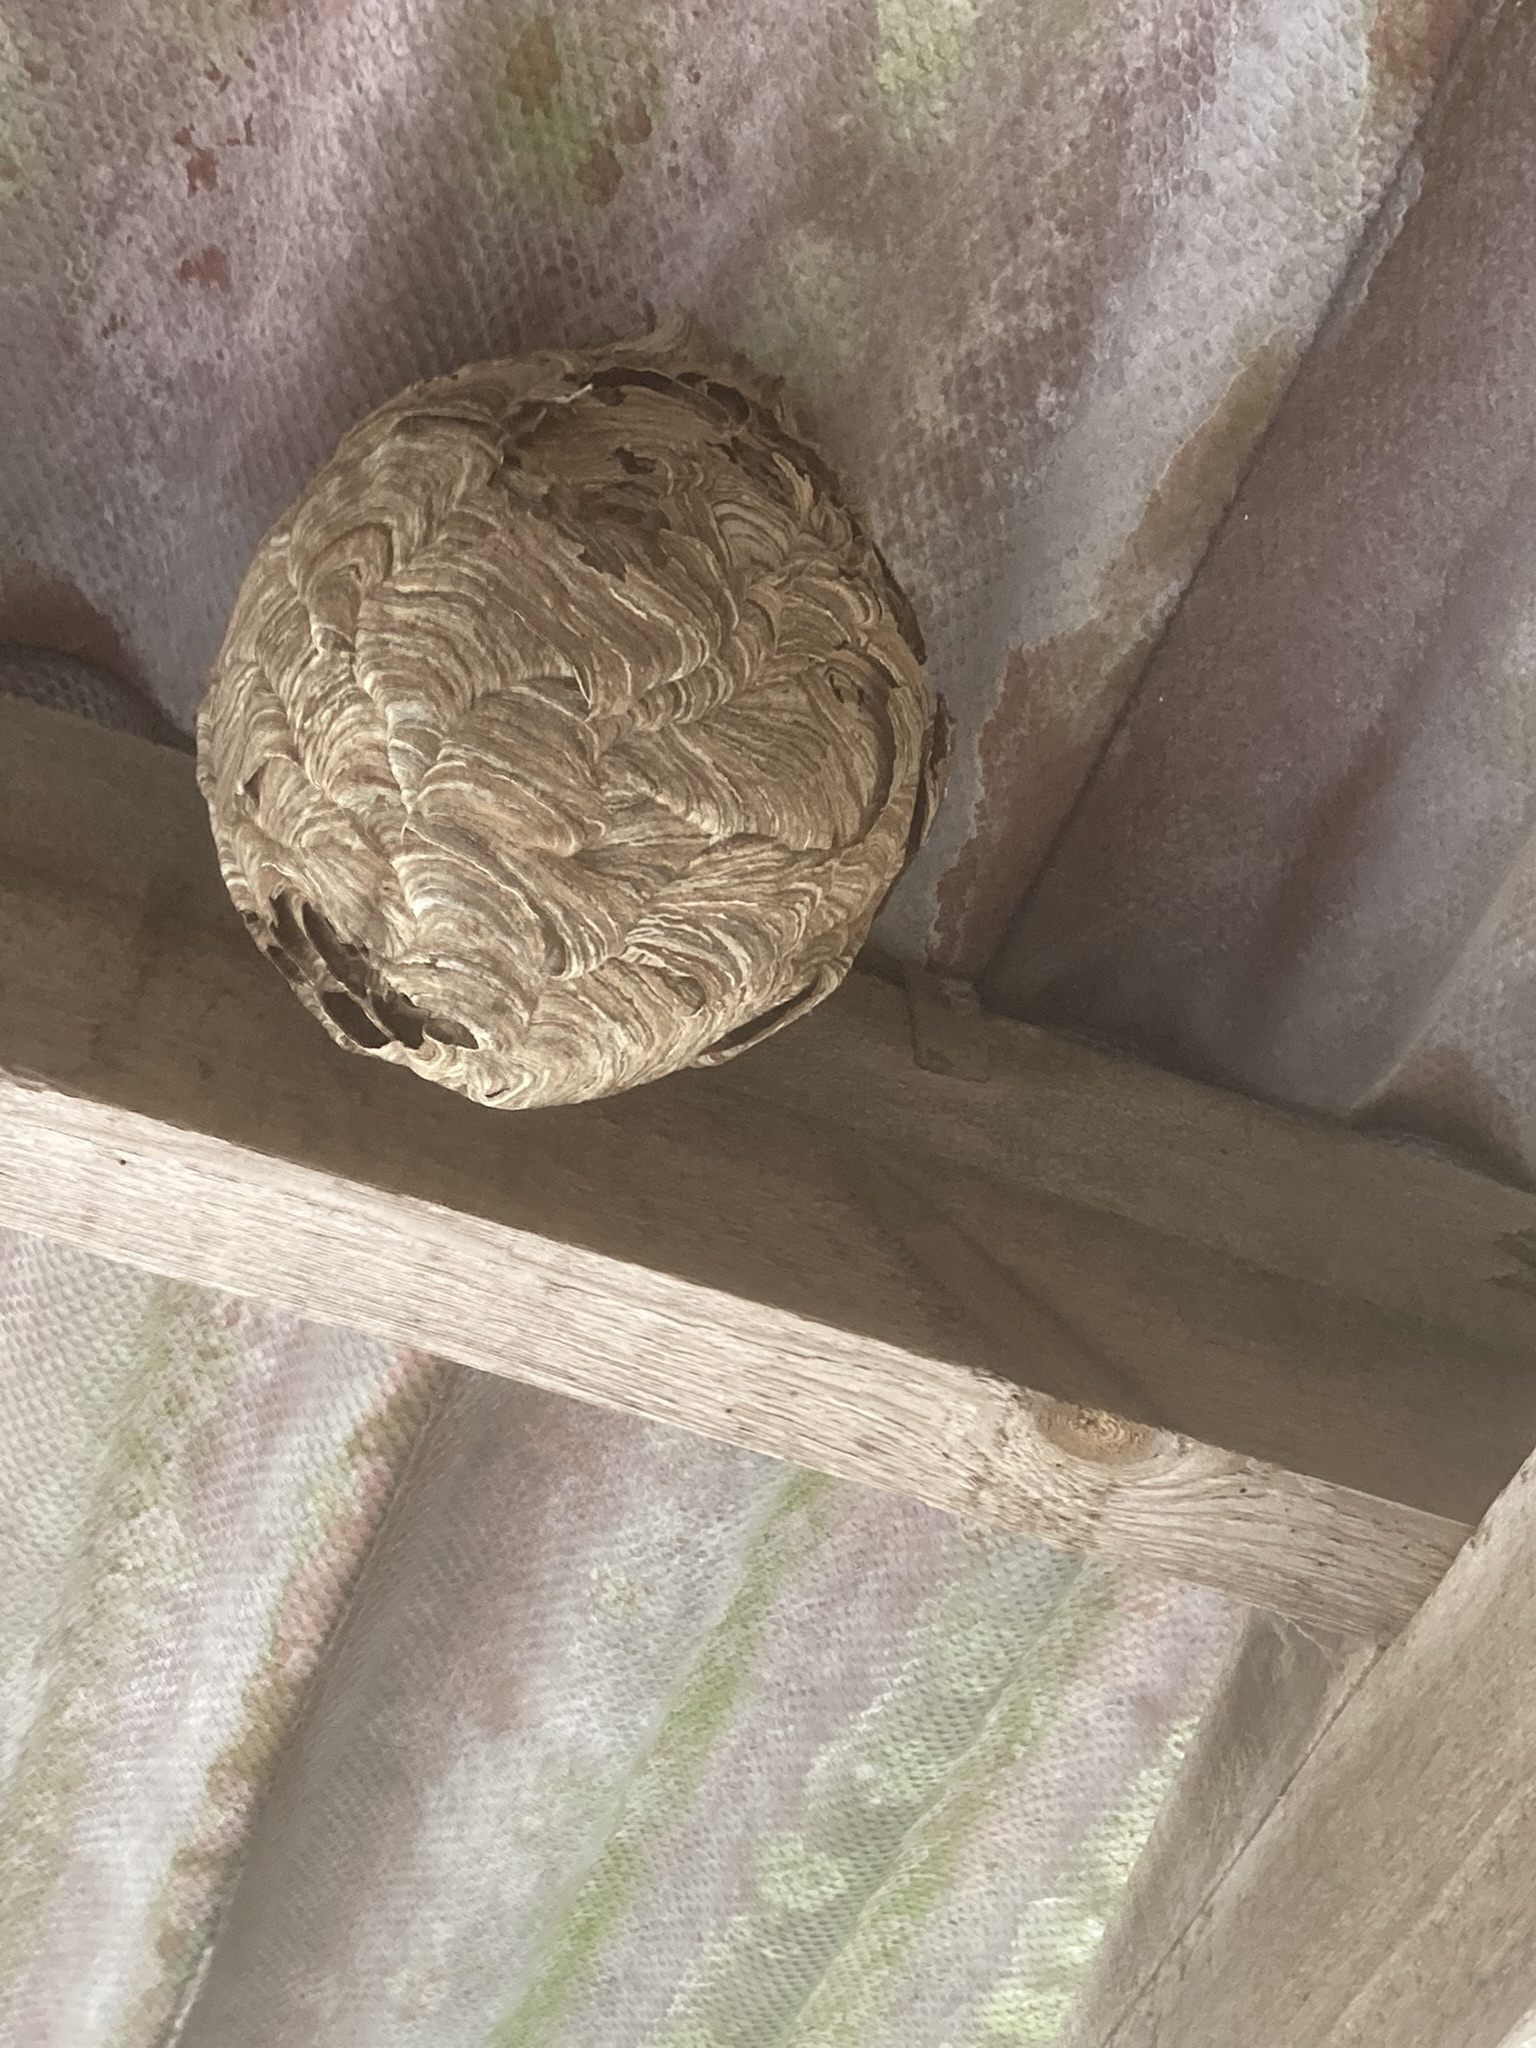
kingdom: Animalia
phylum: Arthropoda
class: Insecta
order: Hymenoptera
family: Vespidae
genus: Vespa
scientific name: Vespa velutina
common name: Asian hornet
